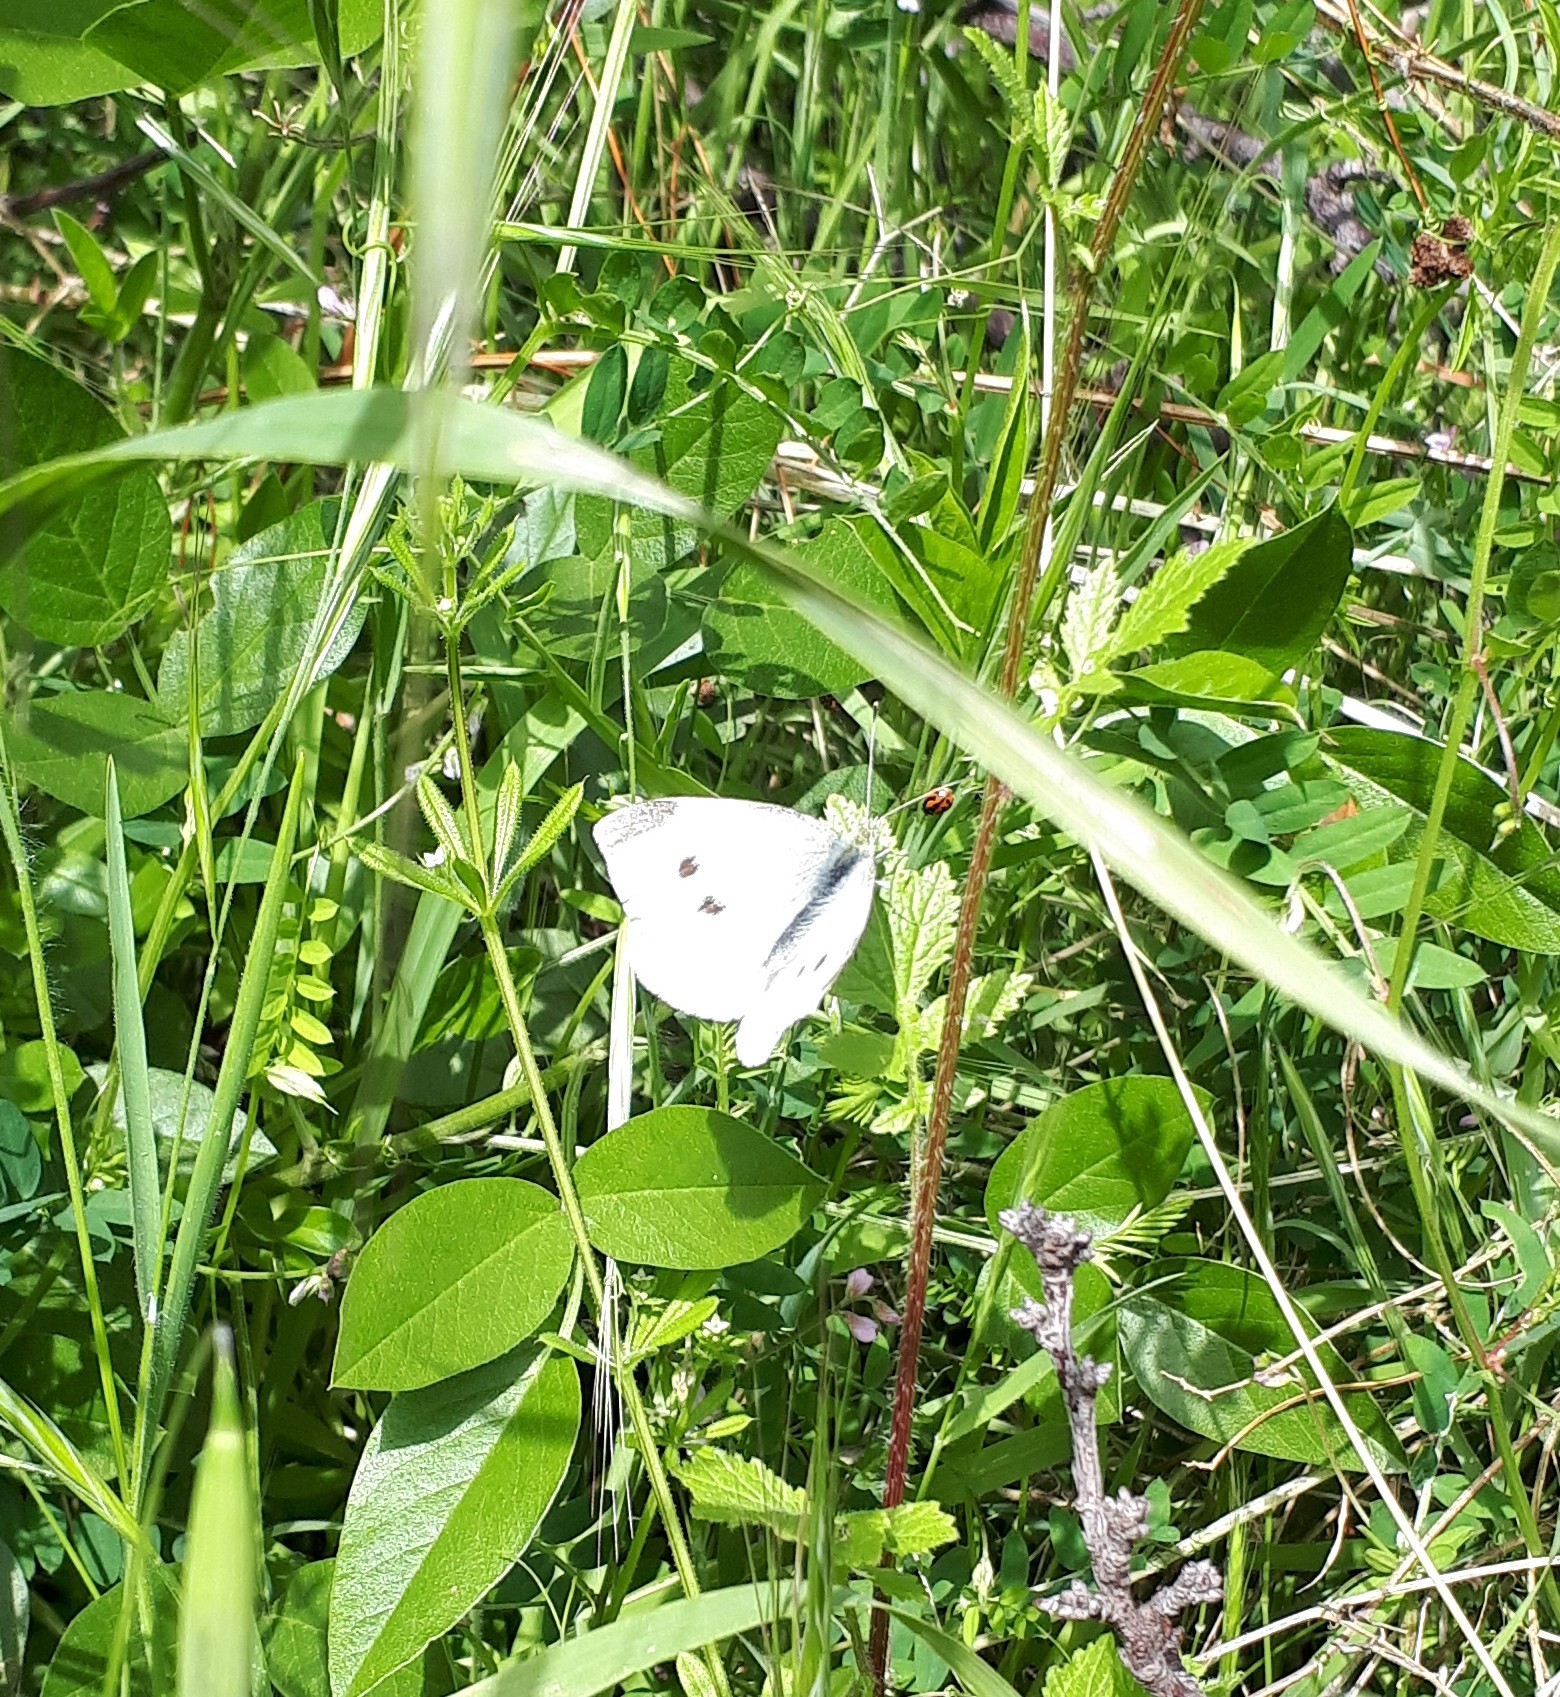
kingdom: Animalia
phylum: Arthropoda
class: Insecta
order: Lepidoptera
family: Pieridae
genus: Pieris
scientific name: Pieris rapae
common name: Small white
